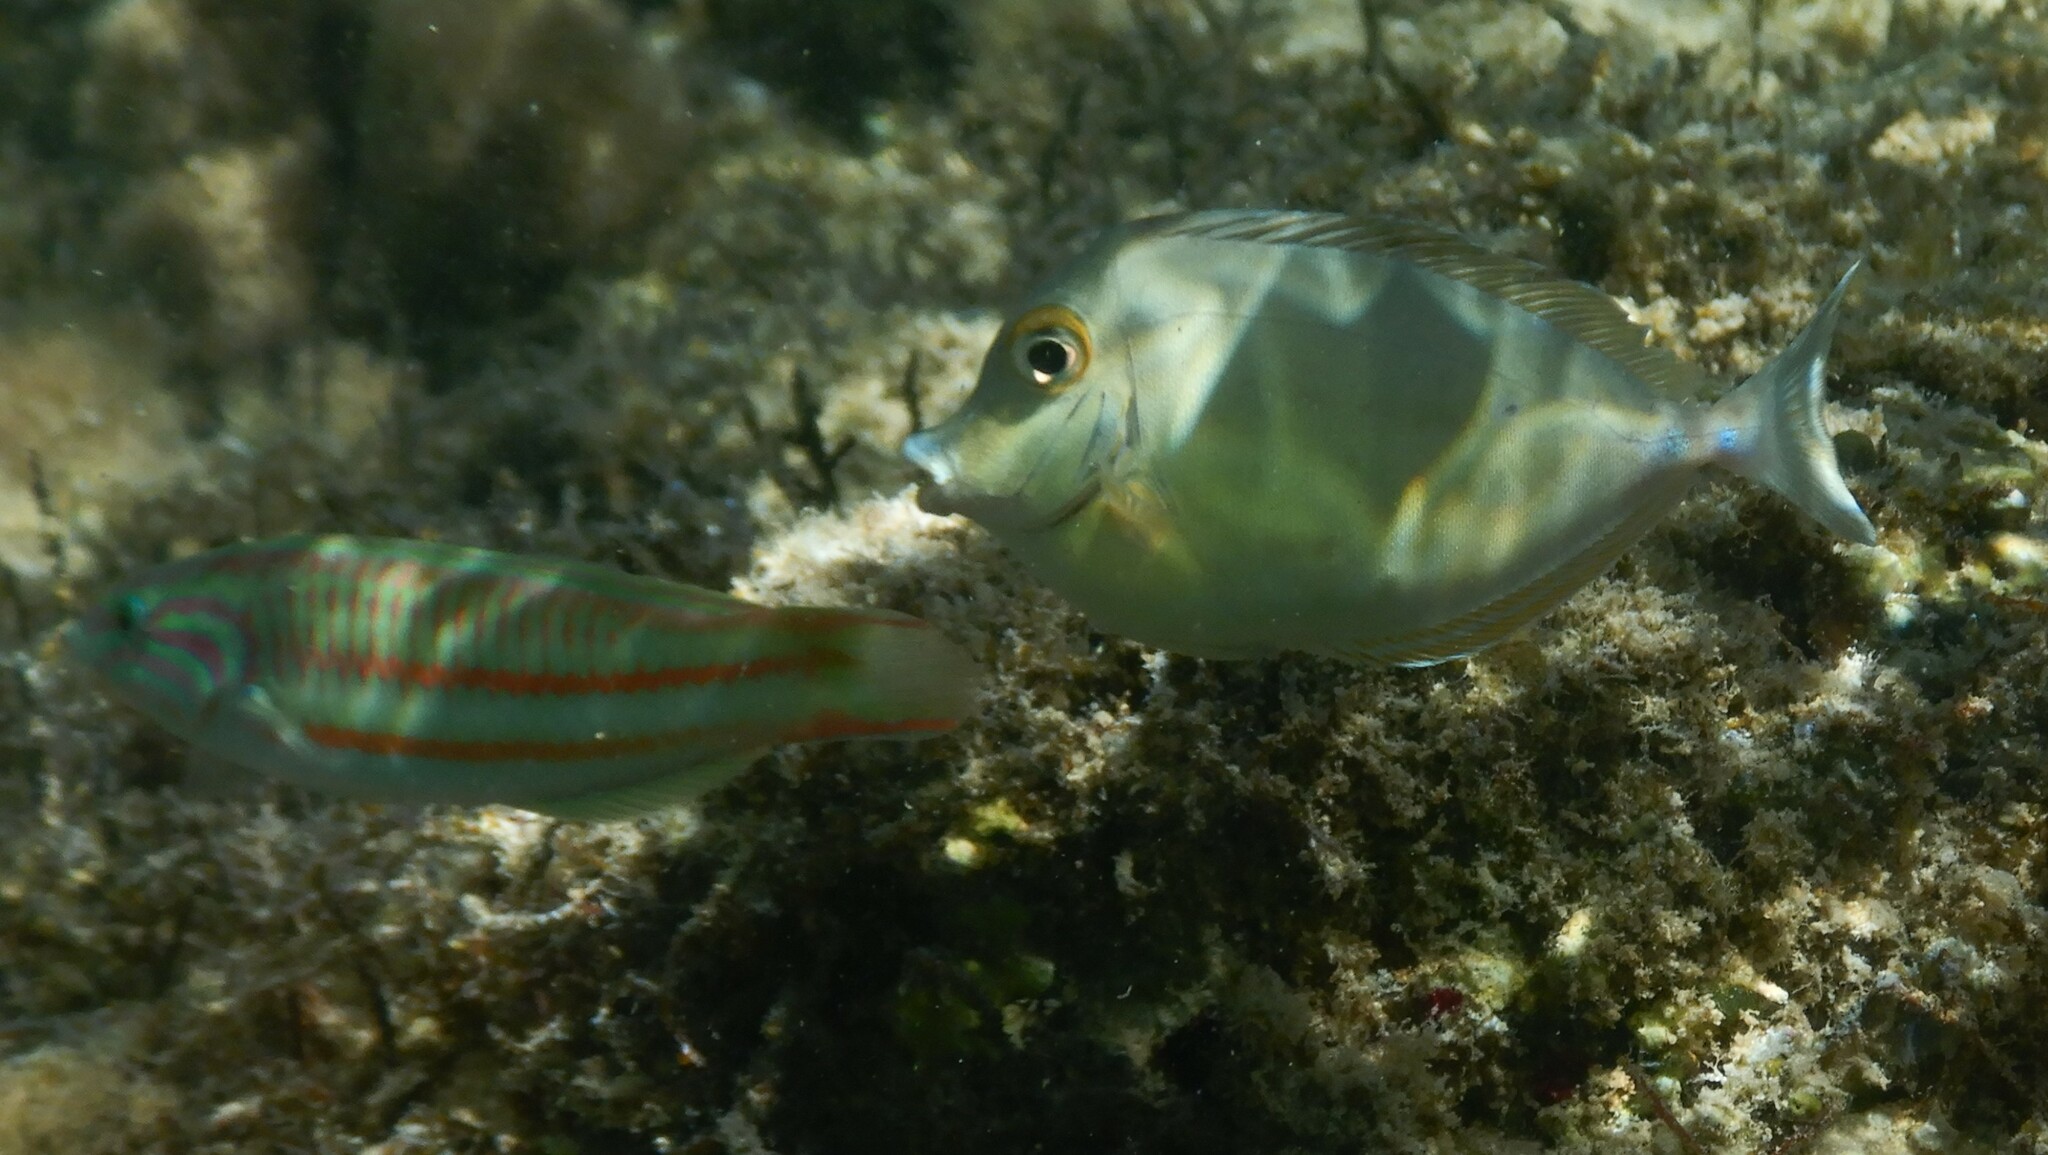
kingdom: Animalia
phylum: Chordata
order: Perciformes
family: Acanthuridae
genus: Naso
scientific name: Naso unicornis
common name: Bluespine unicornfish
